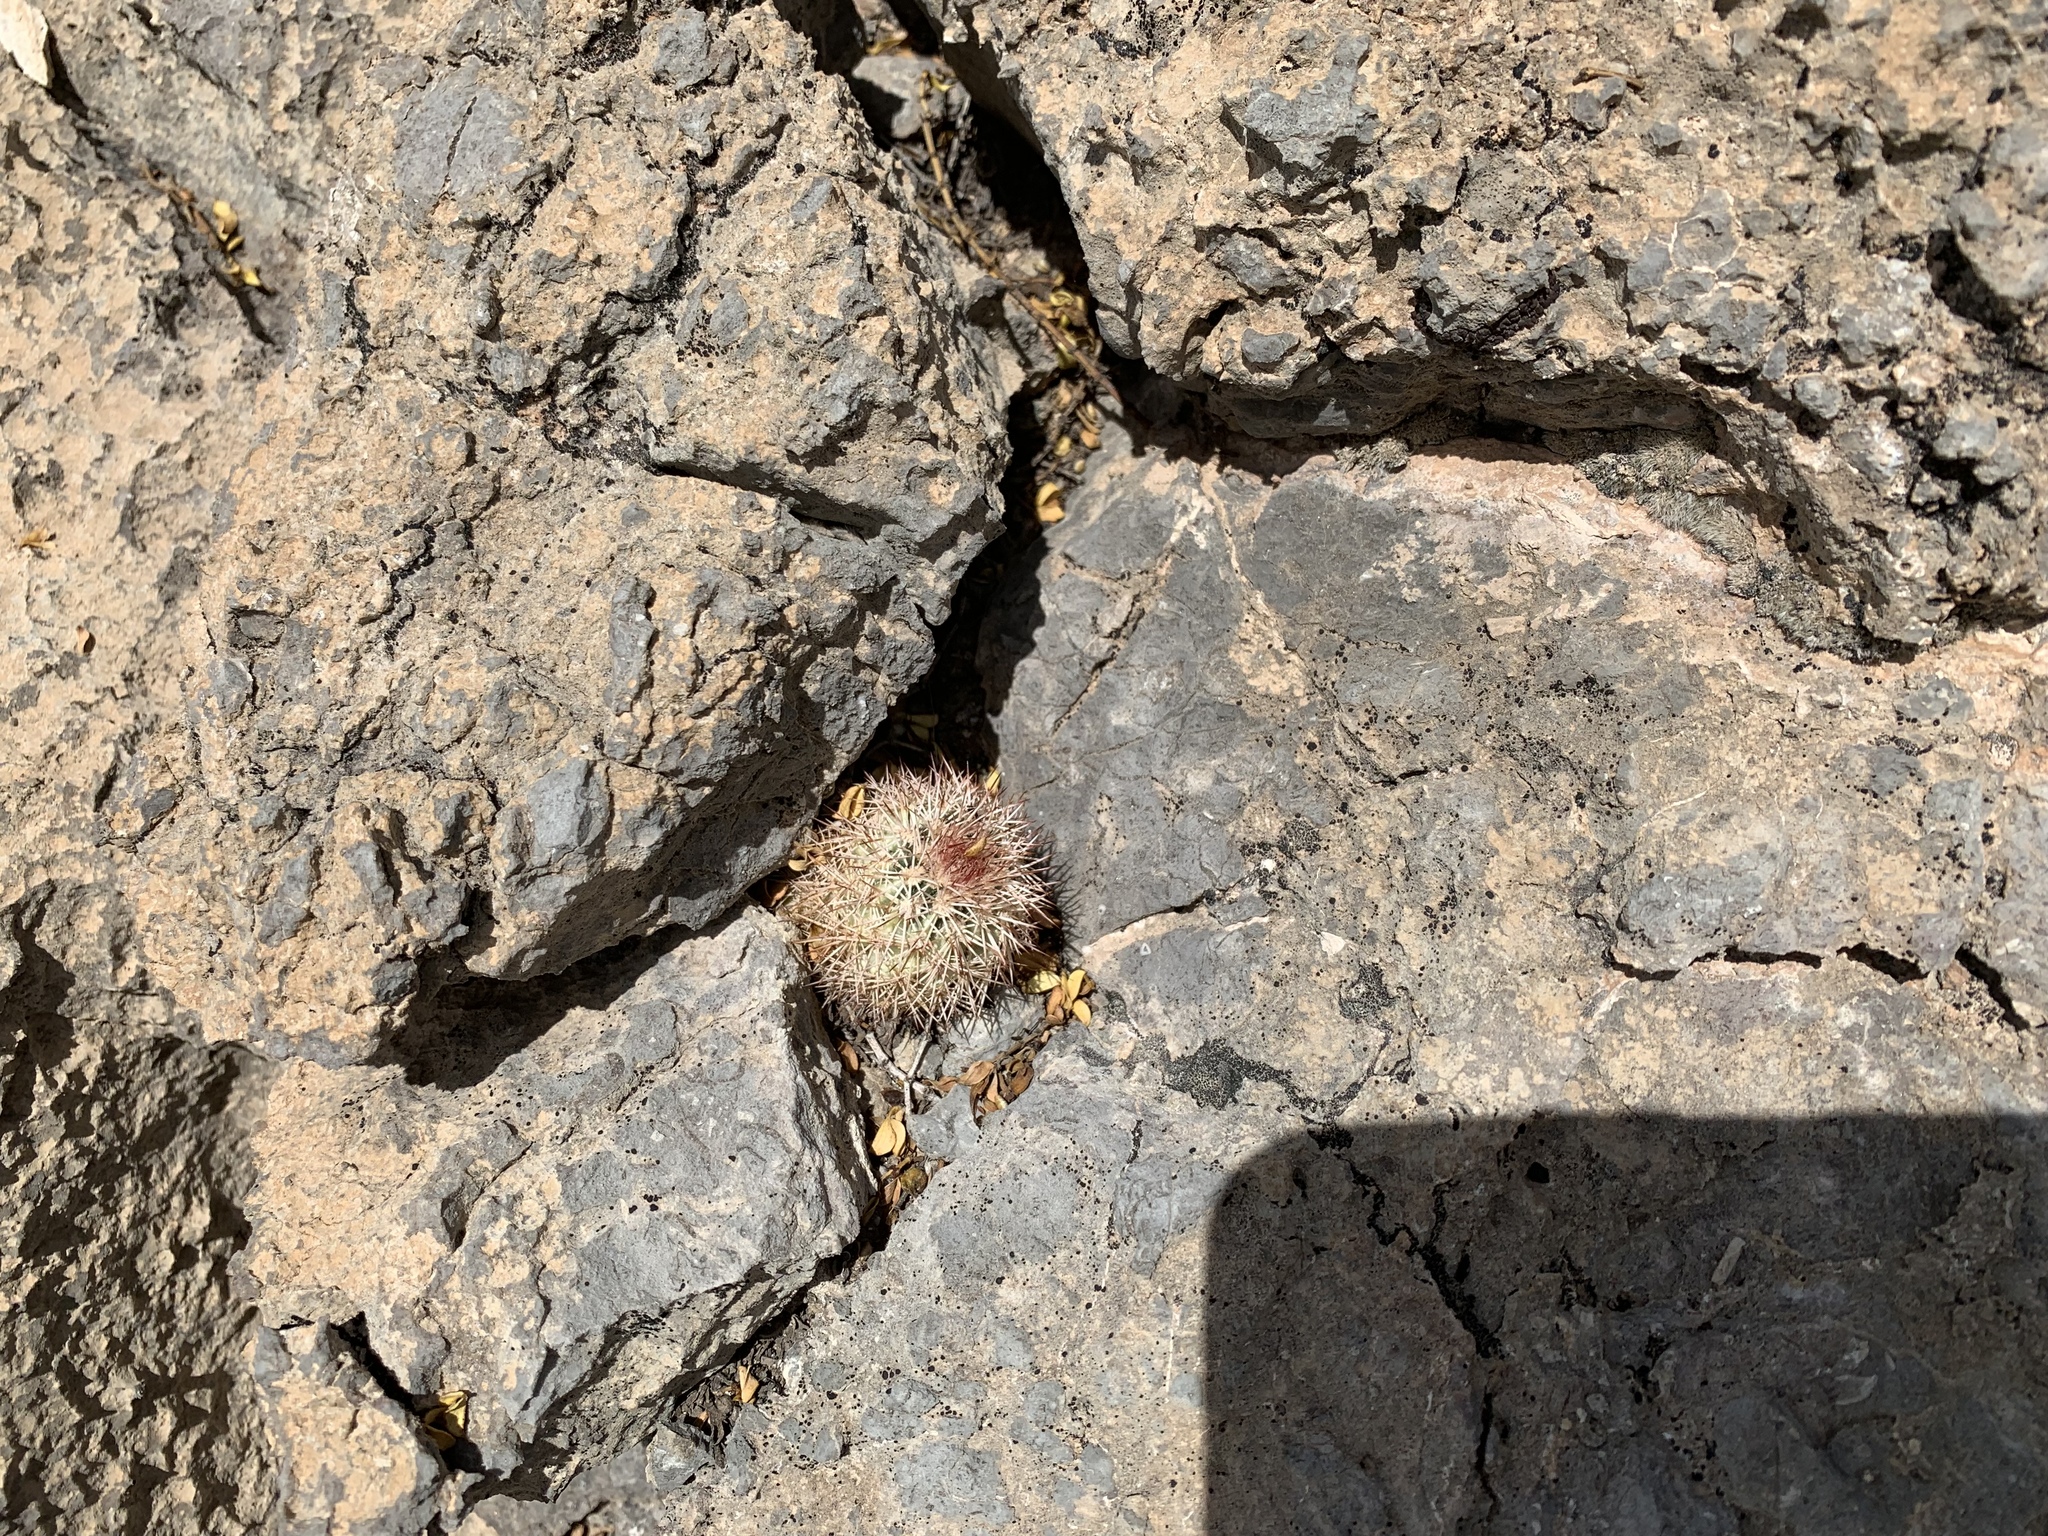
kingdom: Plantae
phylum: Tracheophyta
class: Magnoliopsida
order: Caryophyllales
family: Cactaceae
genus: Echinocereus
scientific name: Echinocereus dasyacanthus
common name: Spiny hedgehog cactus
